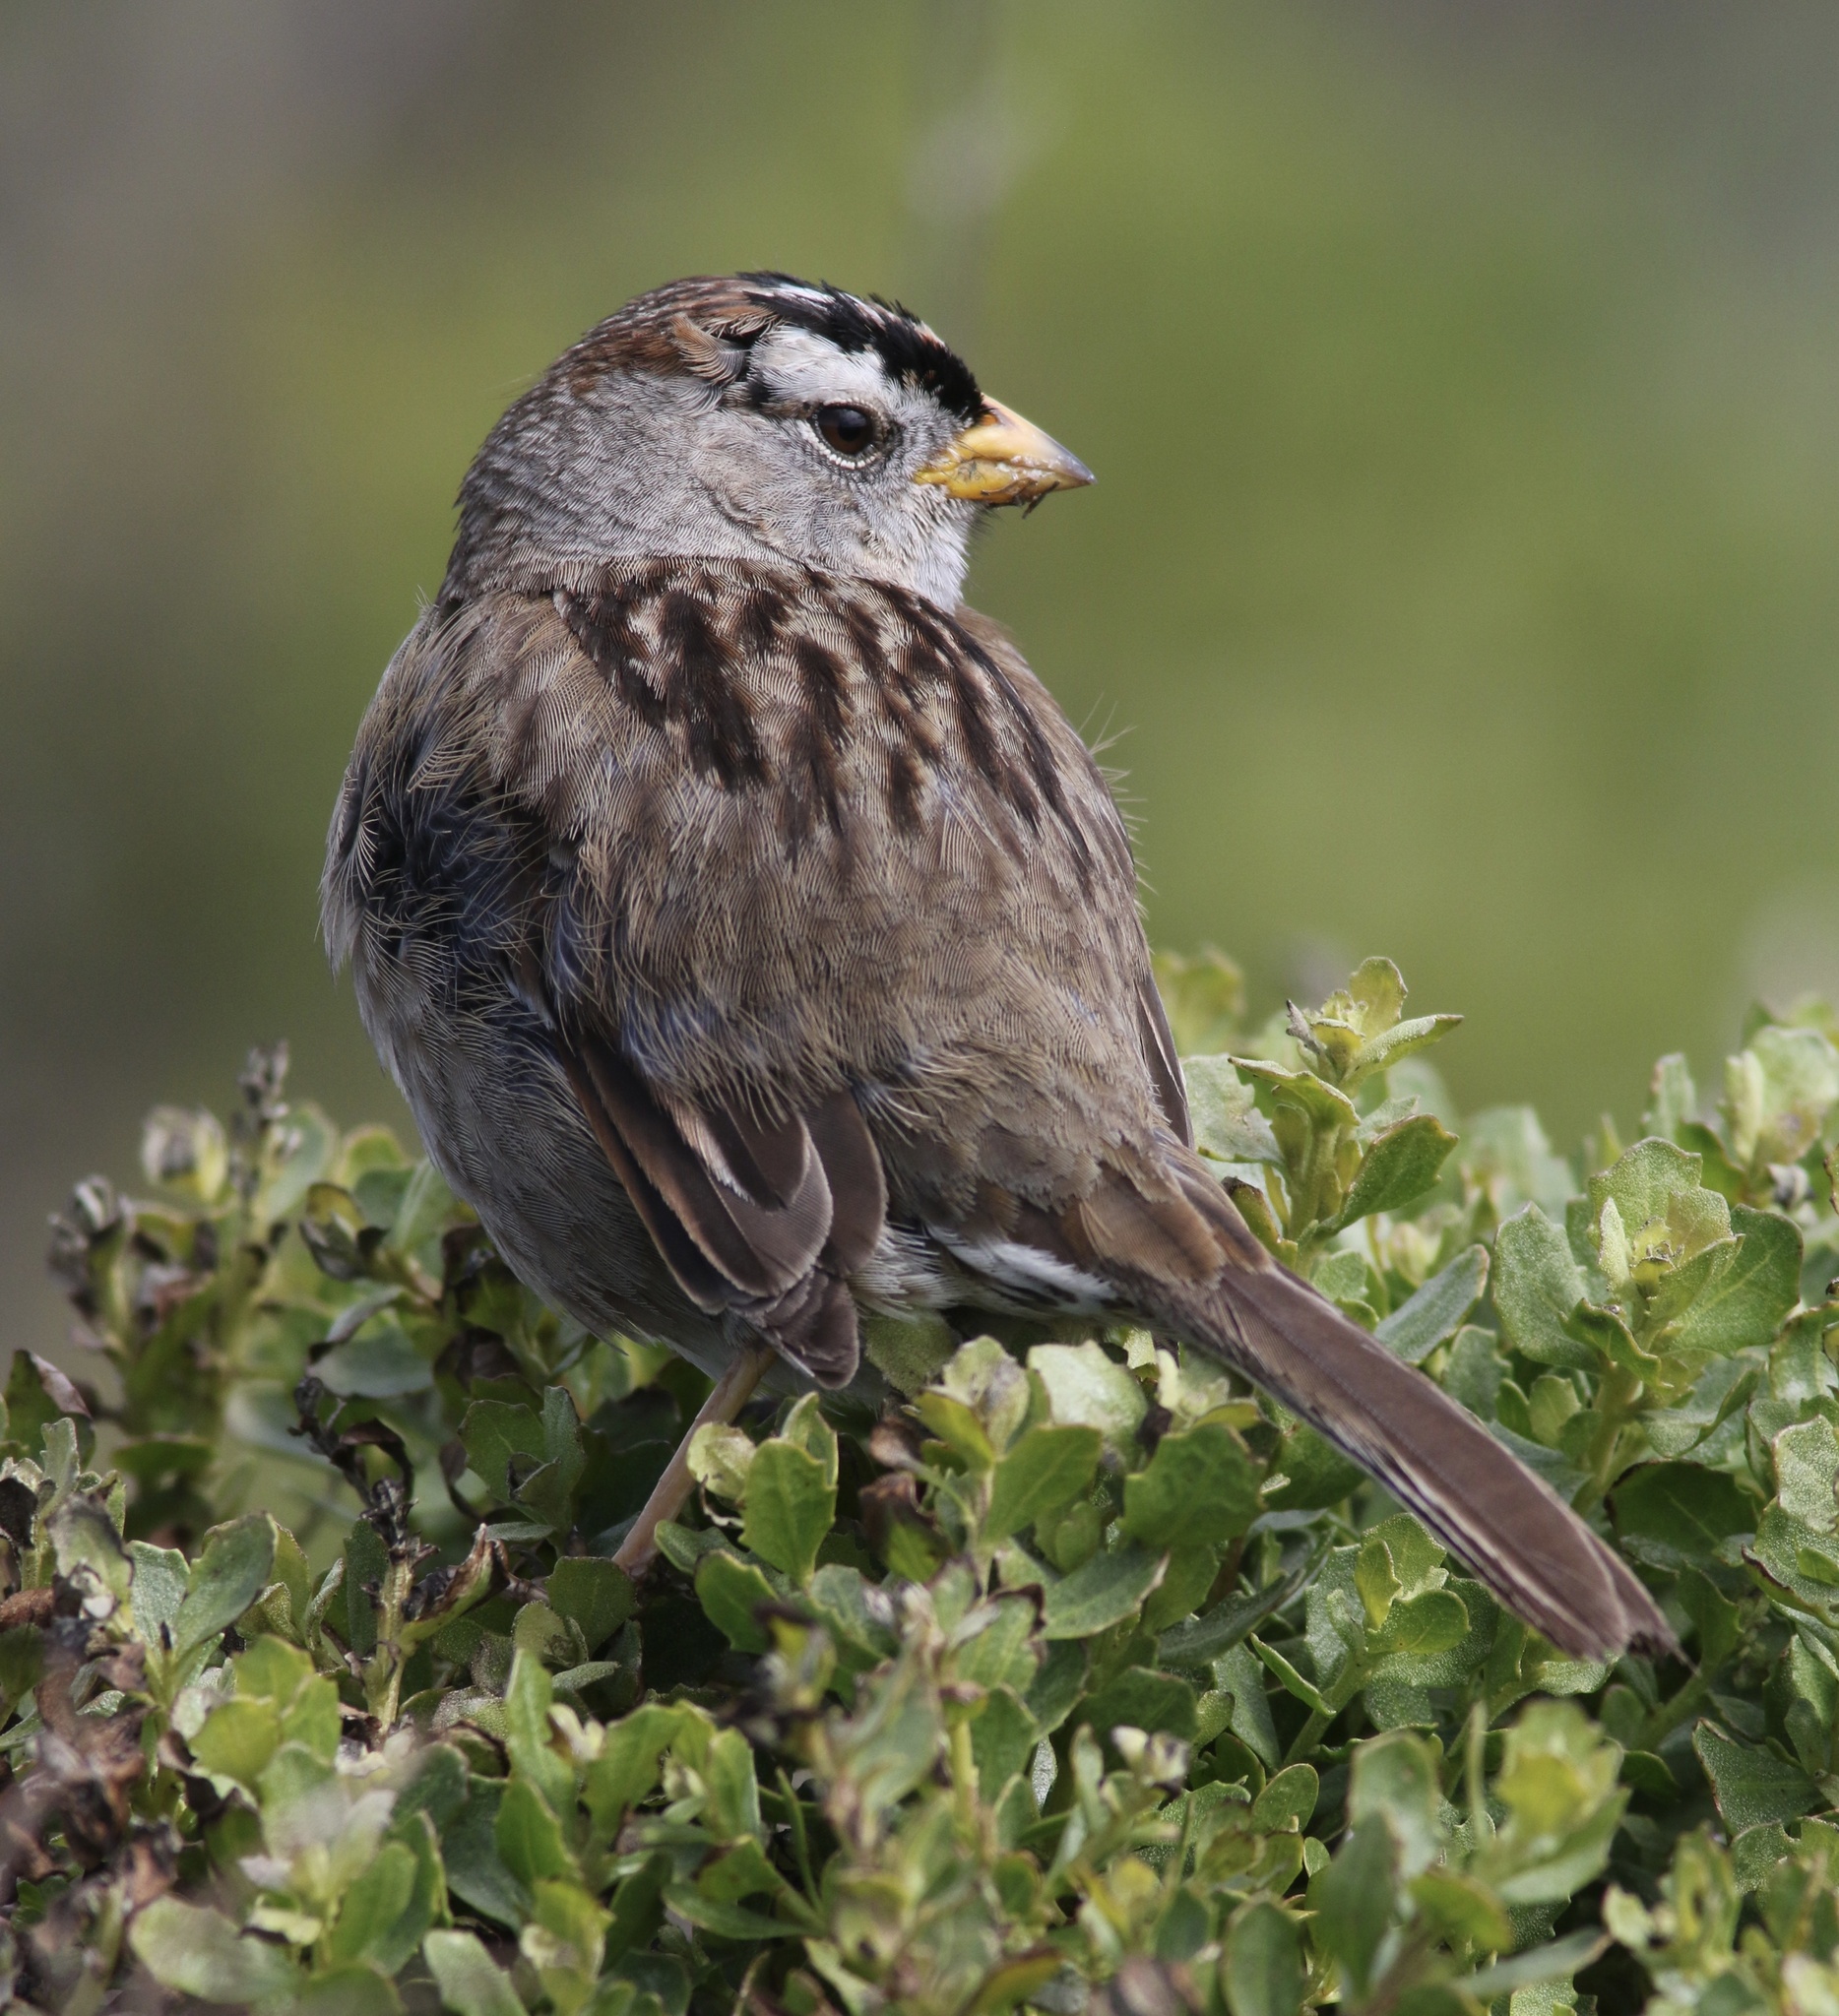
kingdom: Animalia
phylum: Chordata
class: Aves
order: Passeriformes
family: Passerellidae
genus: Zonotrichia
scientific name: Zonotrichia leucophrys
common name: White-crowned sparrow
